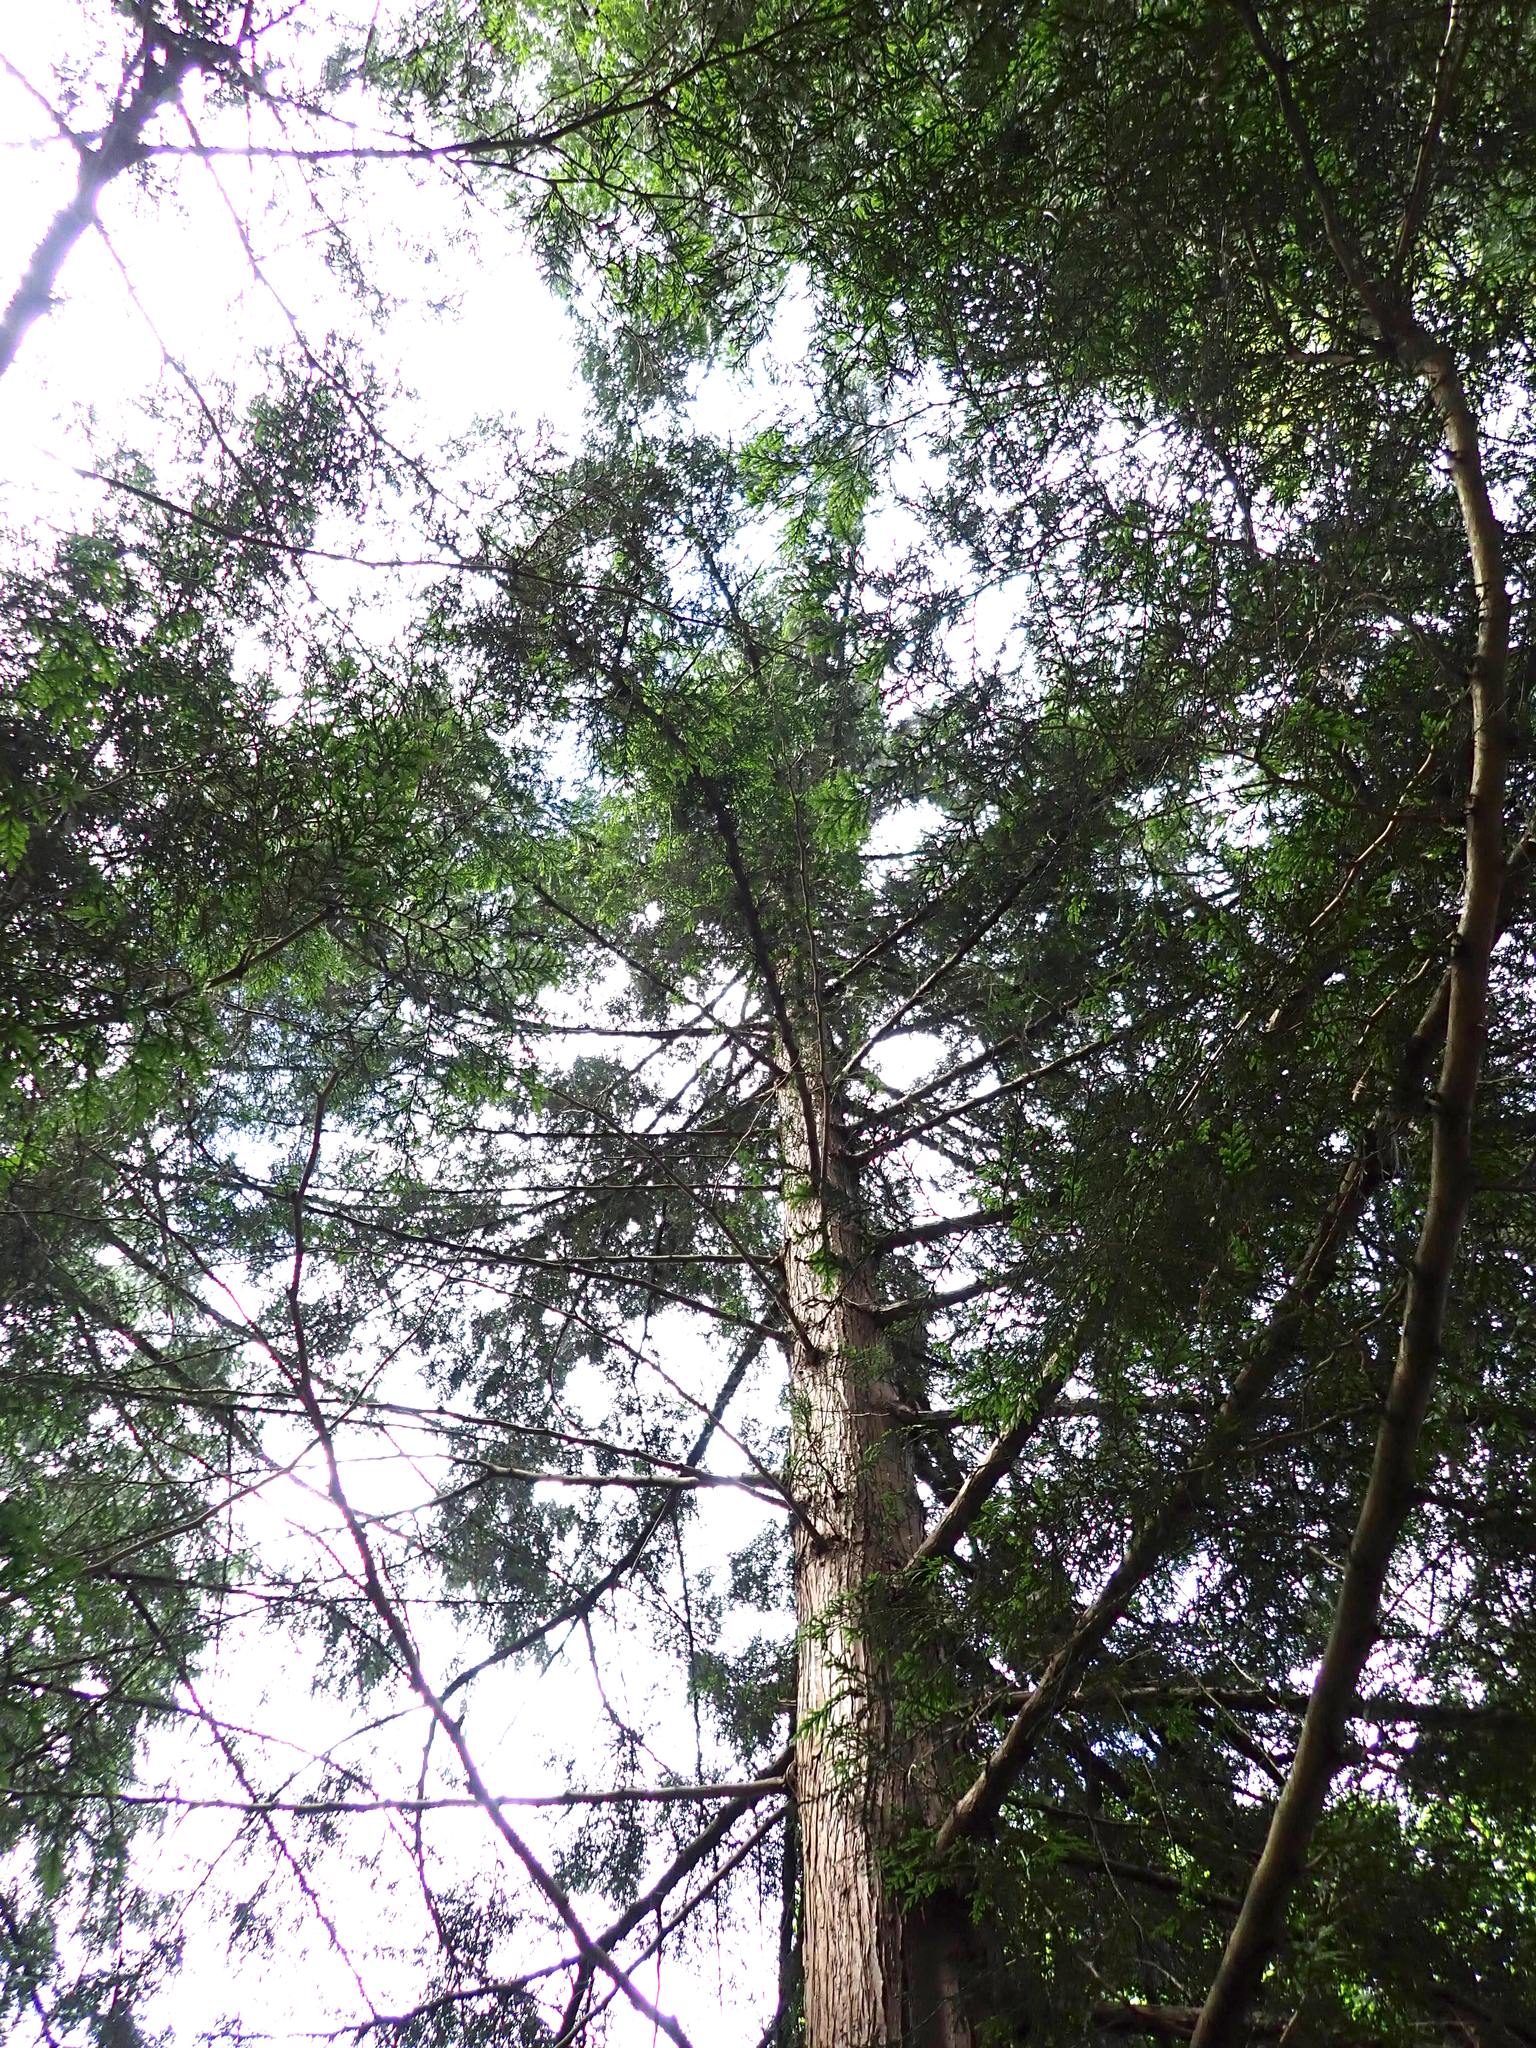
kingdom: Plantae
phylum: Tracheophyta
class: Pinopsida
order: Pinales
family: Cupressaceae
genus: Thuja
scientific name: Thuja plicata
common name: Western red-cedar
